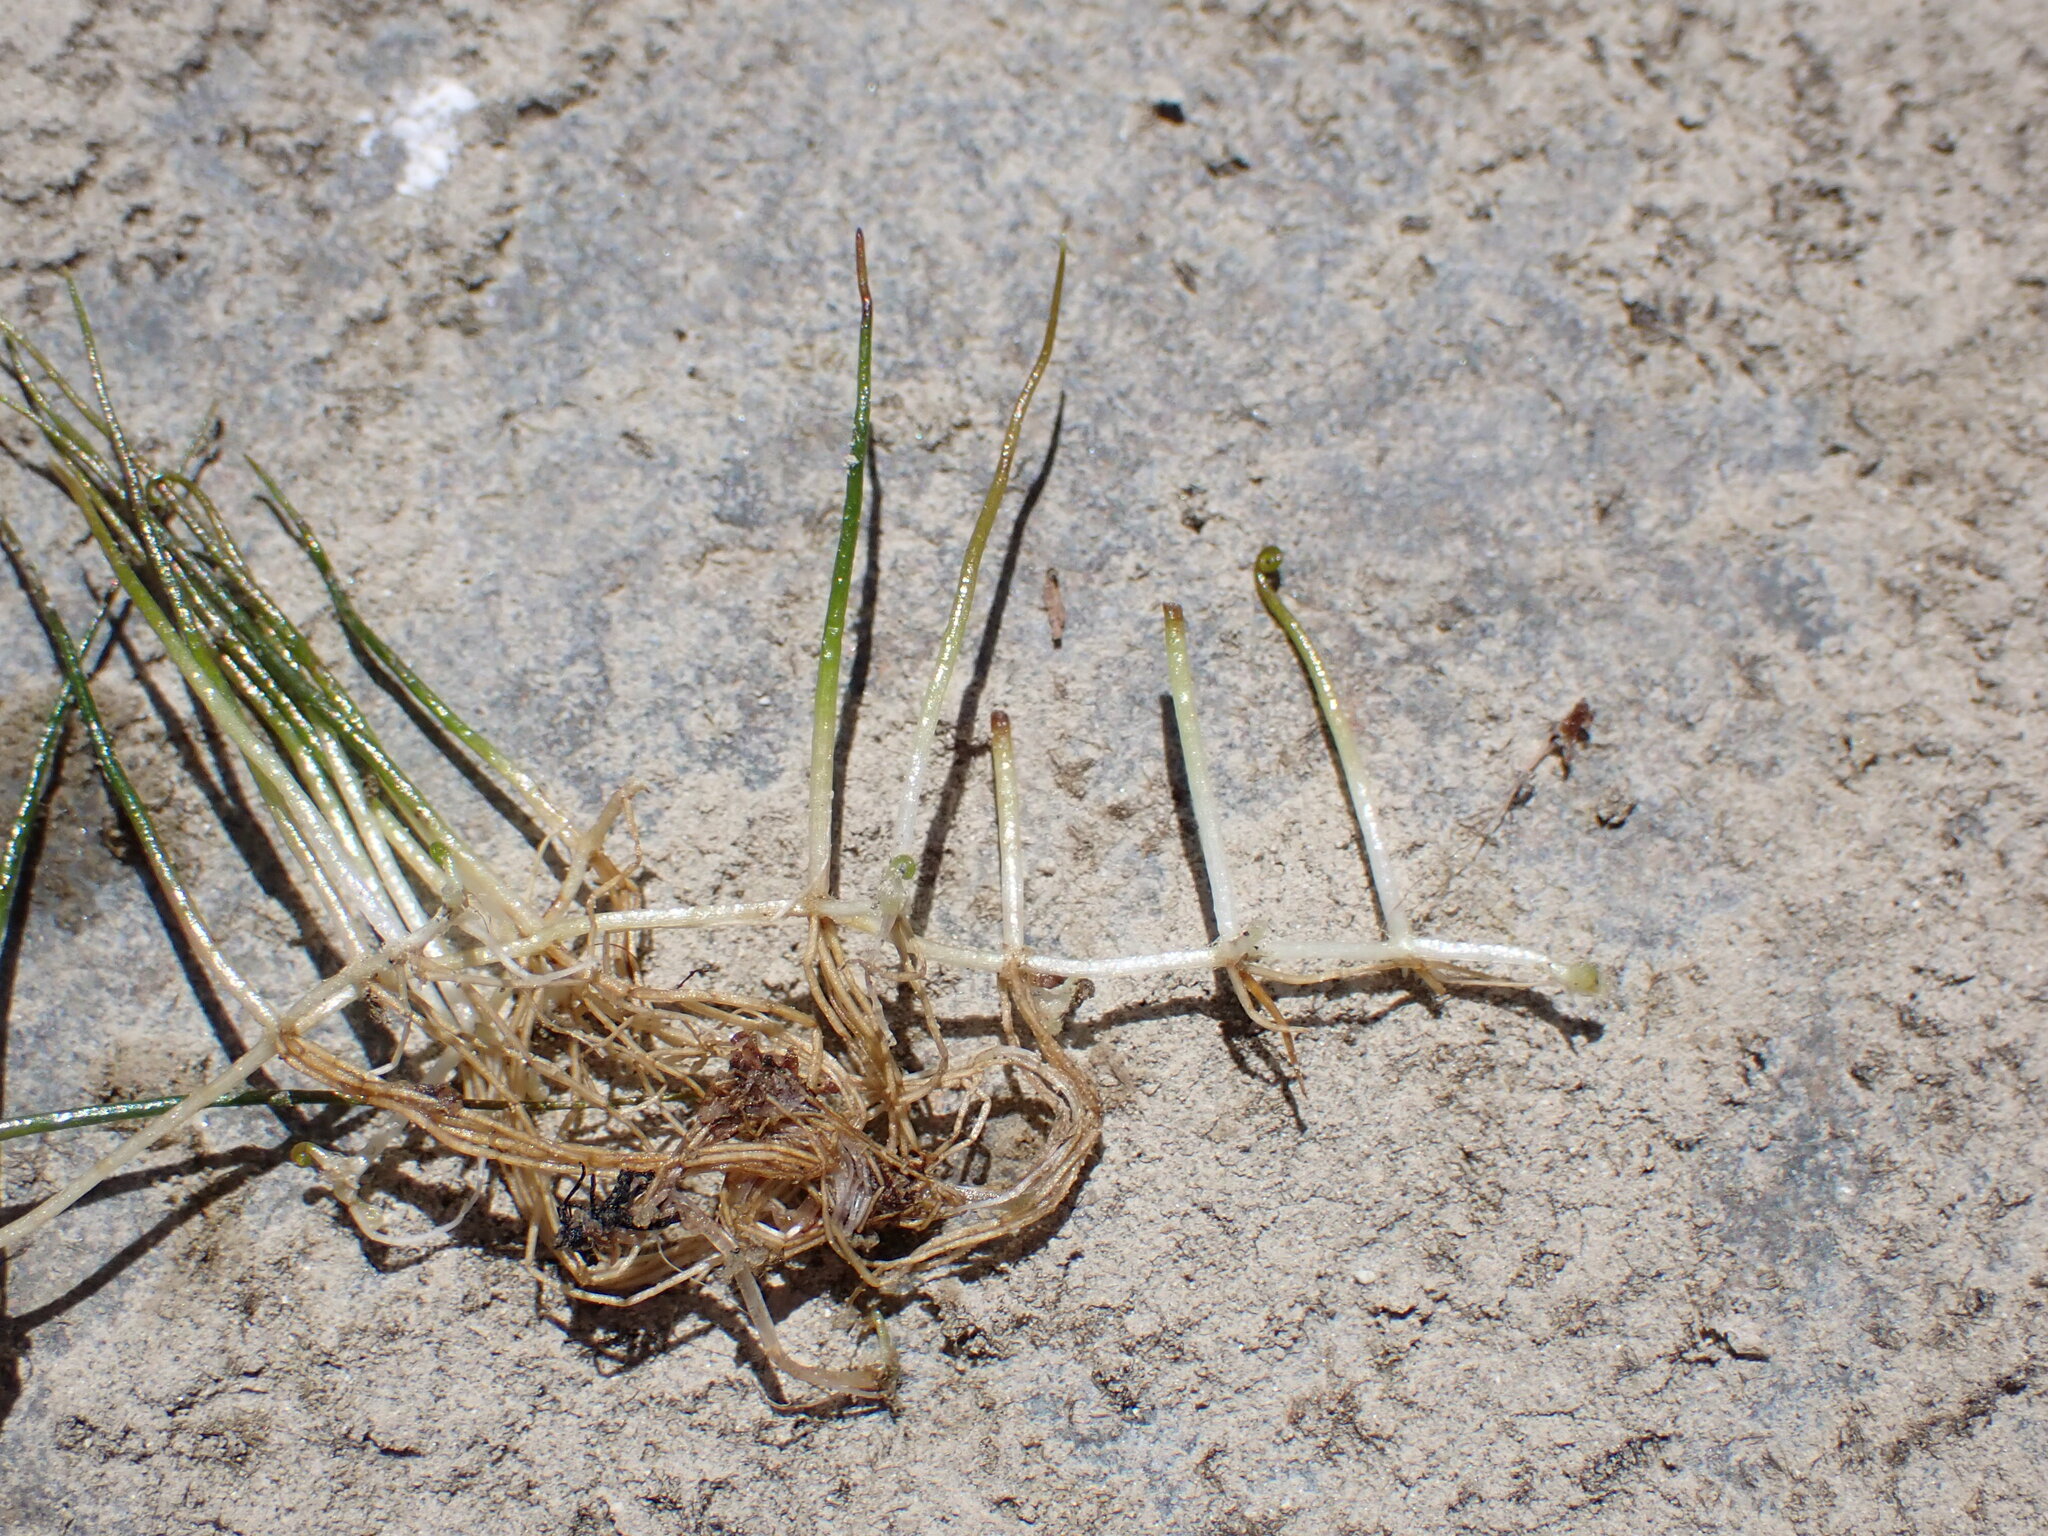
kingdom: Plantae
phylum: Tracheophyta
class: Polypodiopsida
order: Salviniales
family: Marsileaceae
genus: Pilularia
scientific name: Pilularia novae-hollandiae
